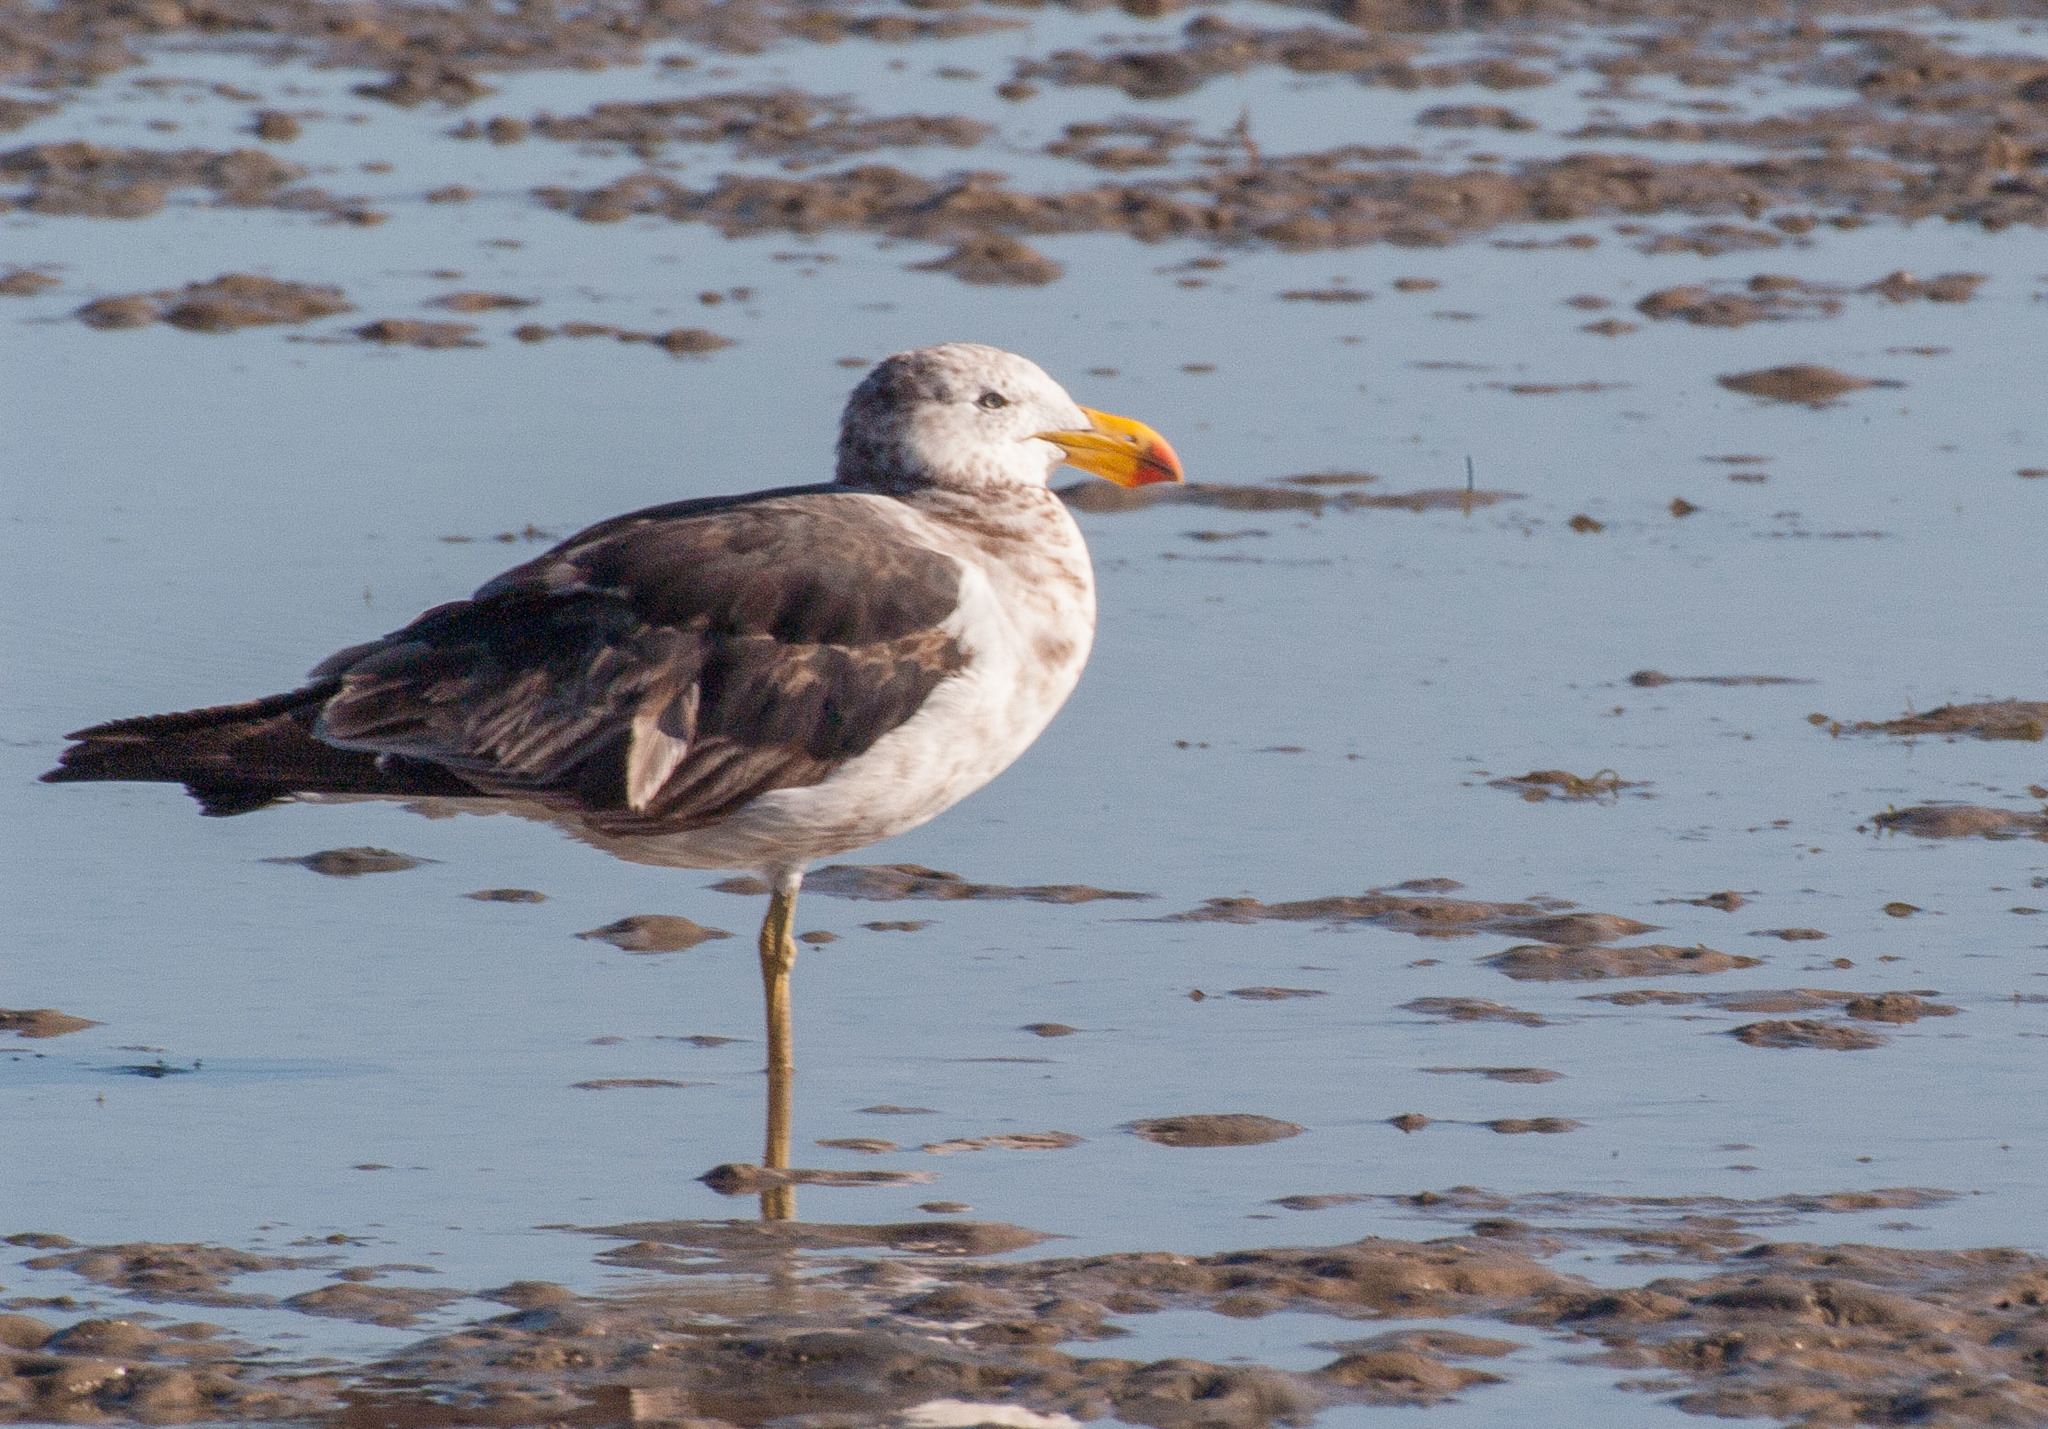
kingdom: Animalia
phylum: Chordata
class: Aves
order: Charadriiformes
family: Laridae
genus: Larus
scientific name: Larus pacificus
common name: Pacific gull
